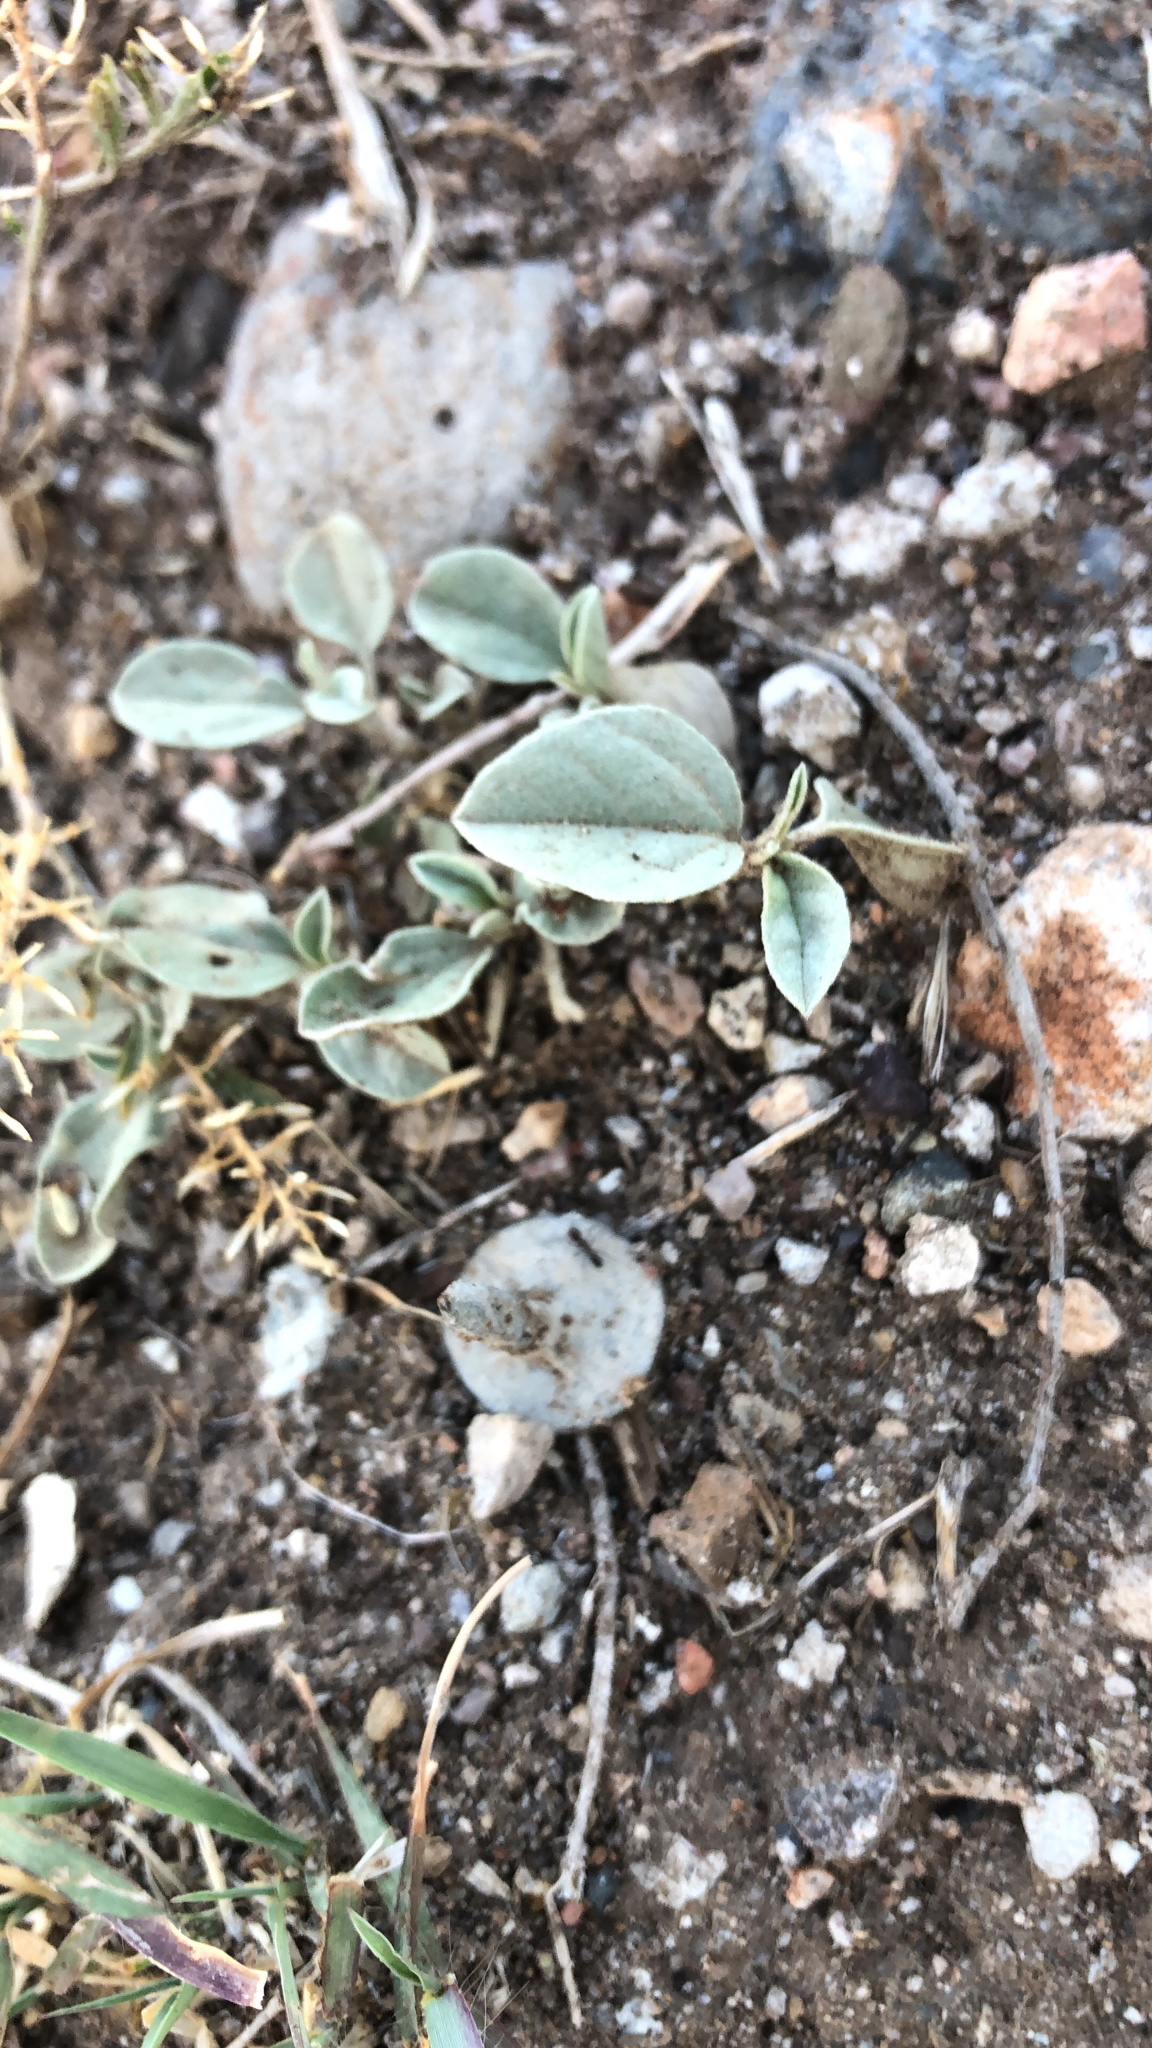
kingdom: Plantae
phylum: Tracheophyta
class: Magnoliopsida
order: Malpighiales
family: Euphorbiaceae
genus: Croton
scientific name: Croton pottsii
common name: Leatherweed
